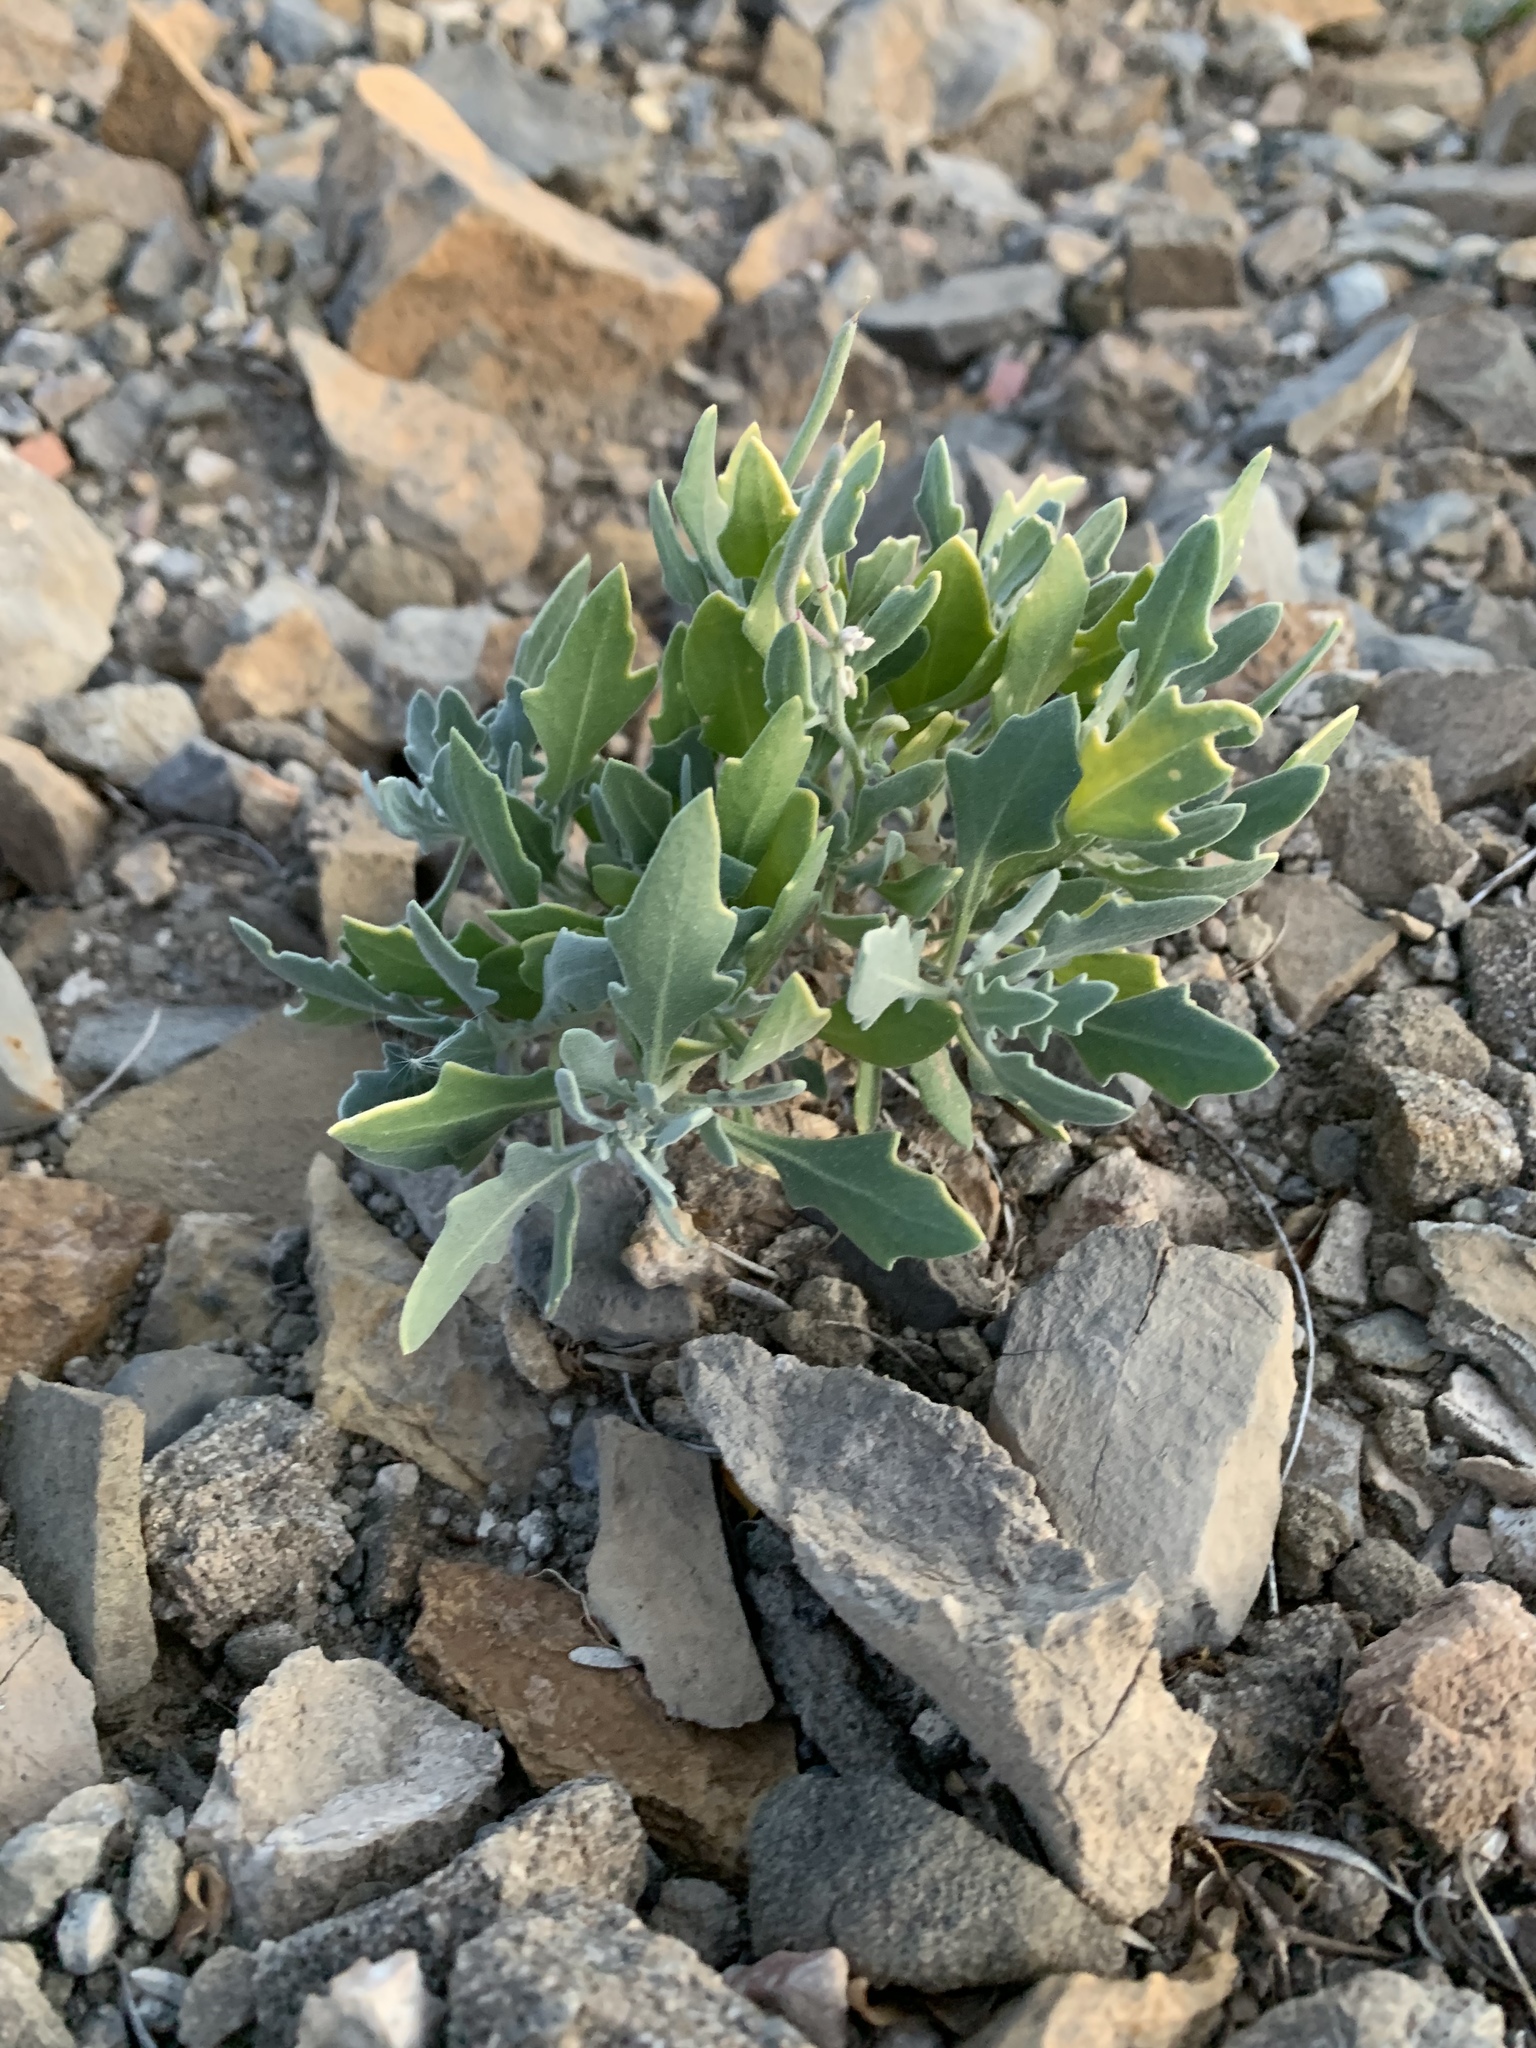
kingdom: Plantae
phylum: Tracheophyta
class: Magnoliopsida
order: Brassicales
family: Brassicaceae
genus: Nerisyrenia
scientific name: Nerisyrenia camporum
